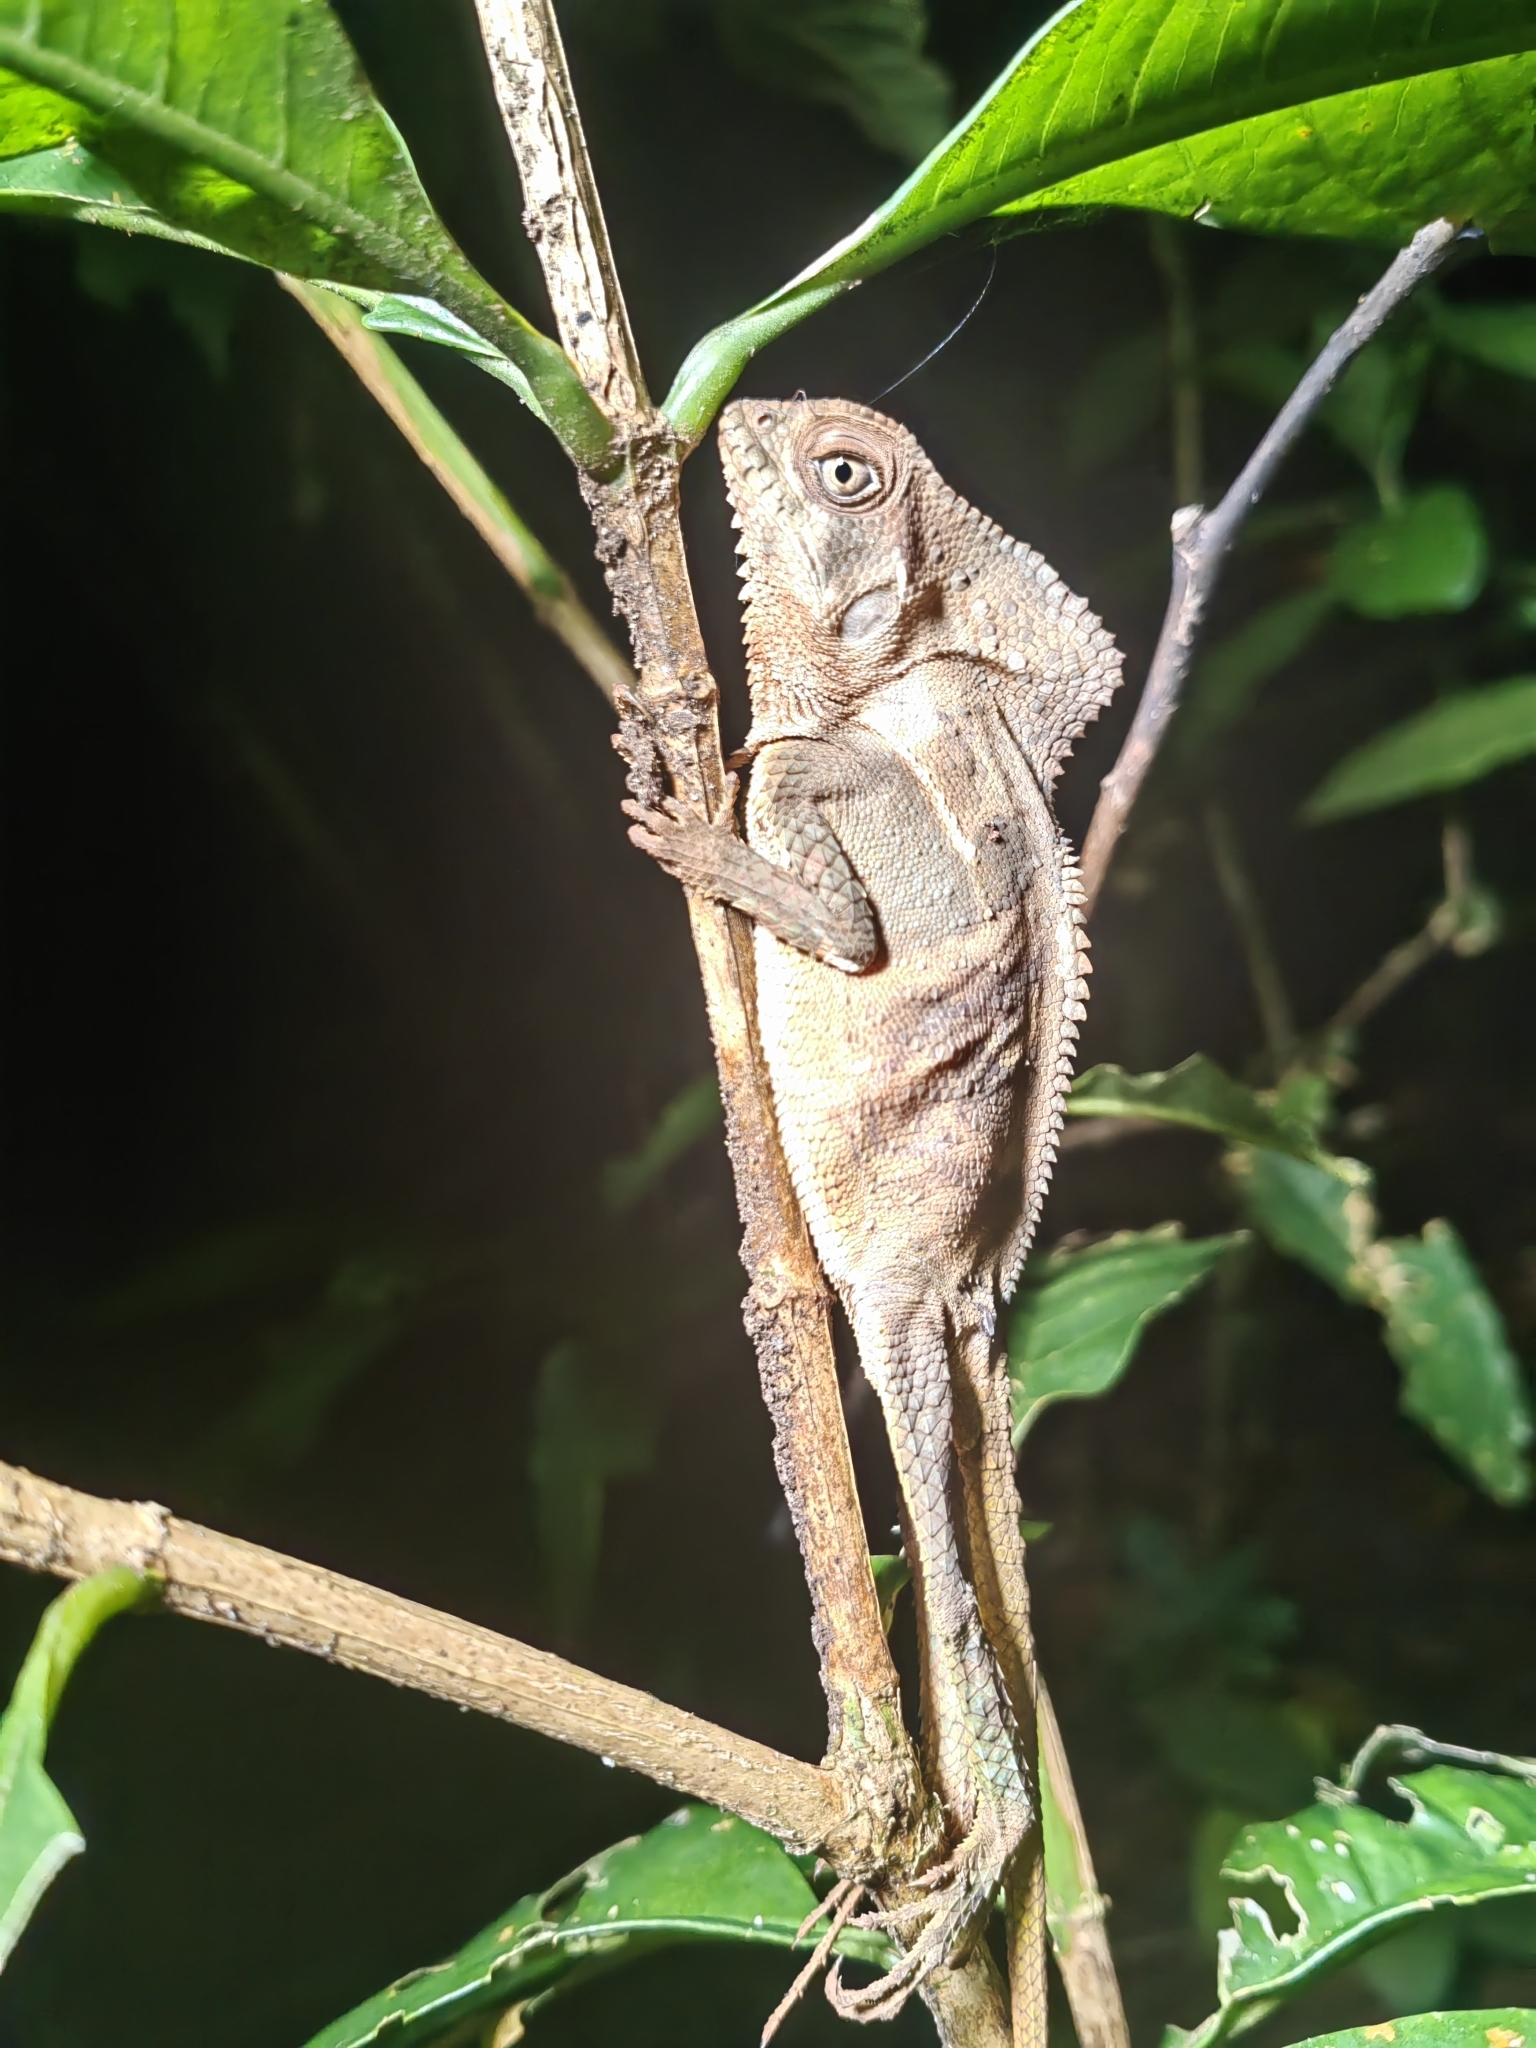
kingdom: Animalia
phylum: Chordata
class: Squamata
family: Corytophanidae
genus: Corytophanes
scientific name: Corytophanes cristatus
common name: Smooth helmeted iguana
